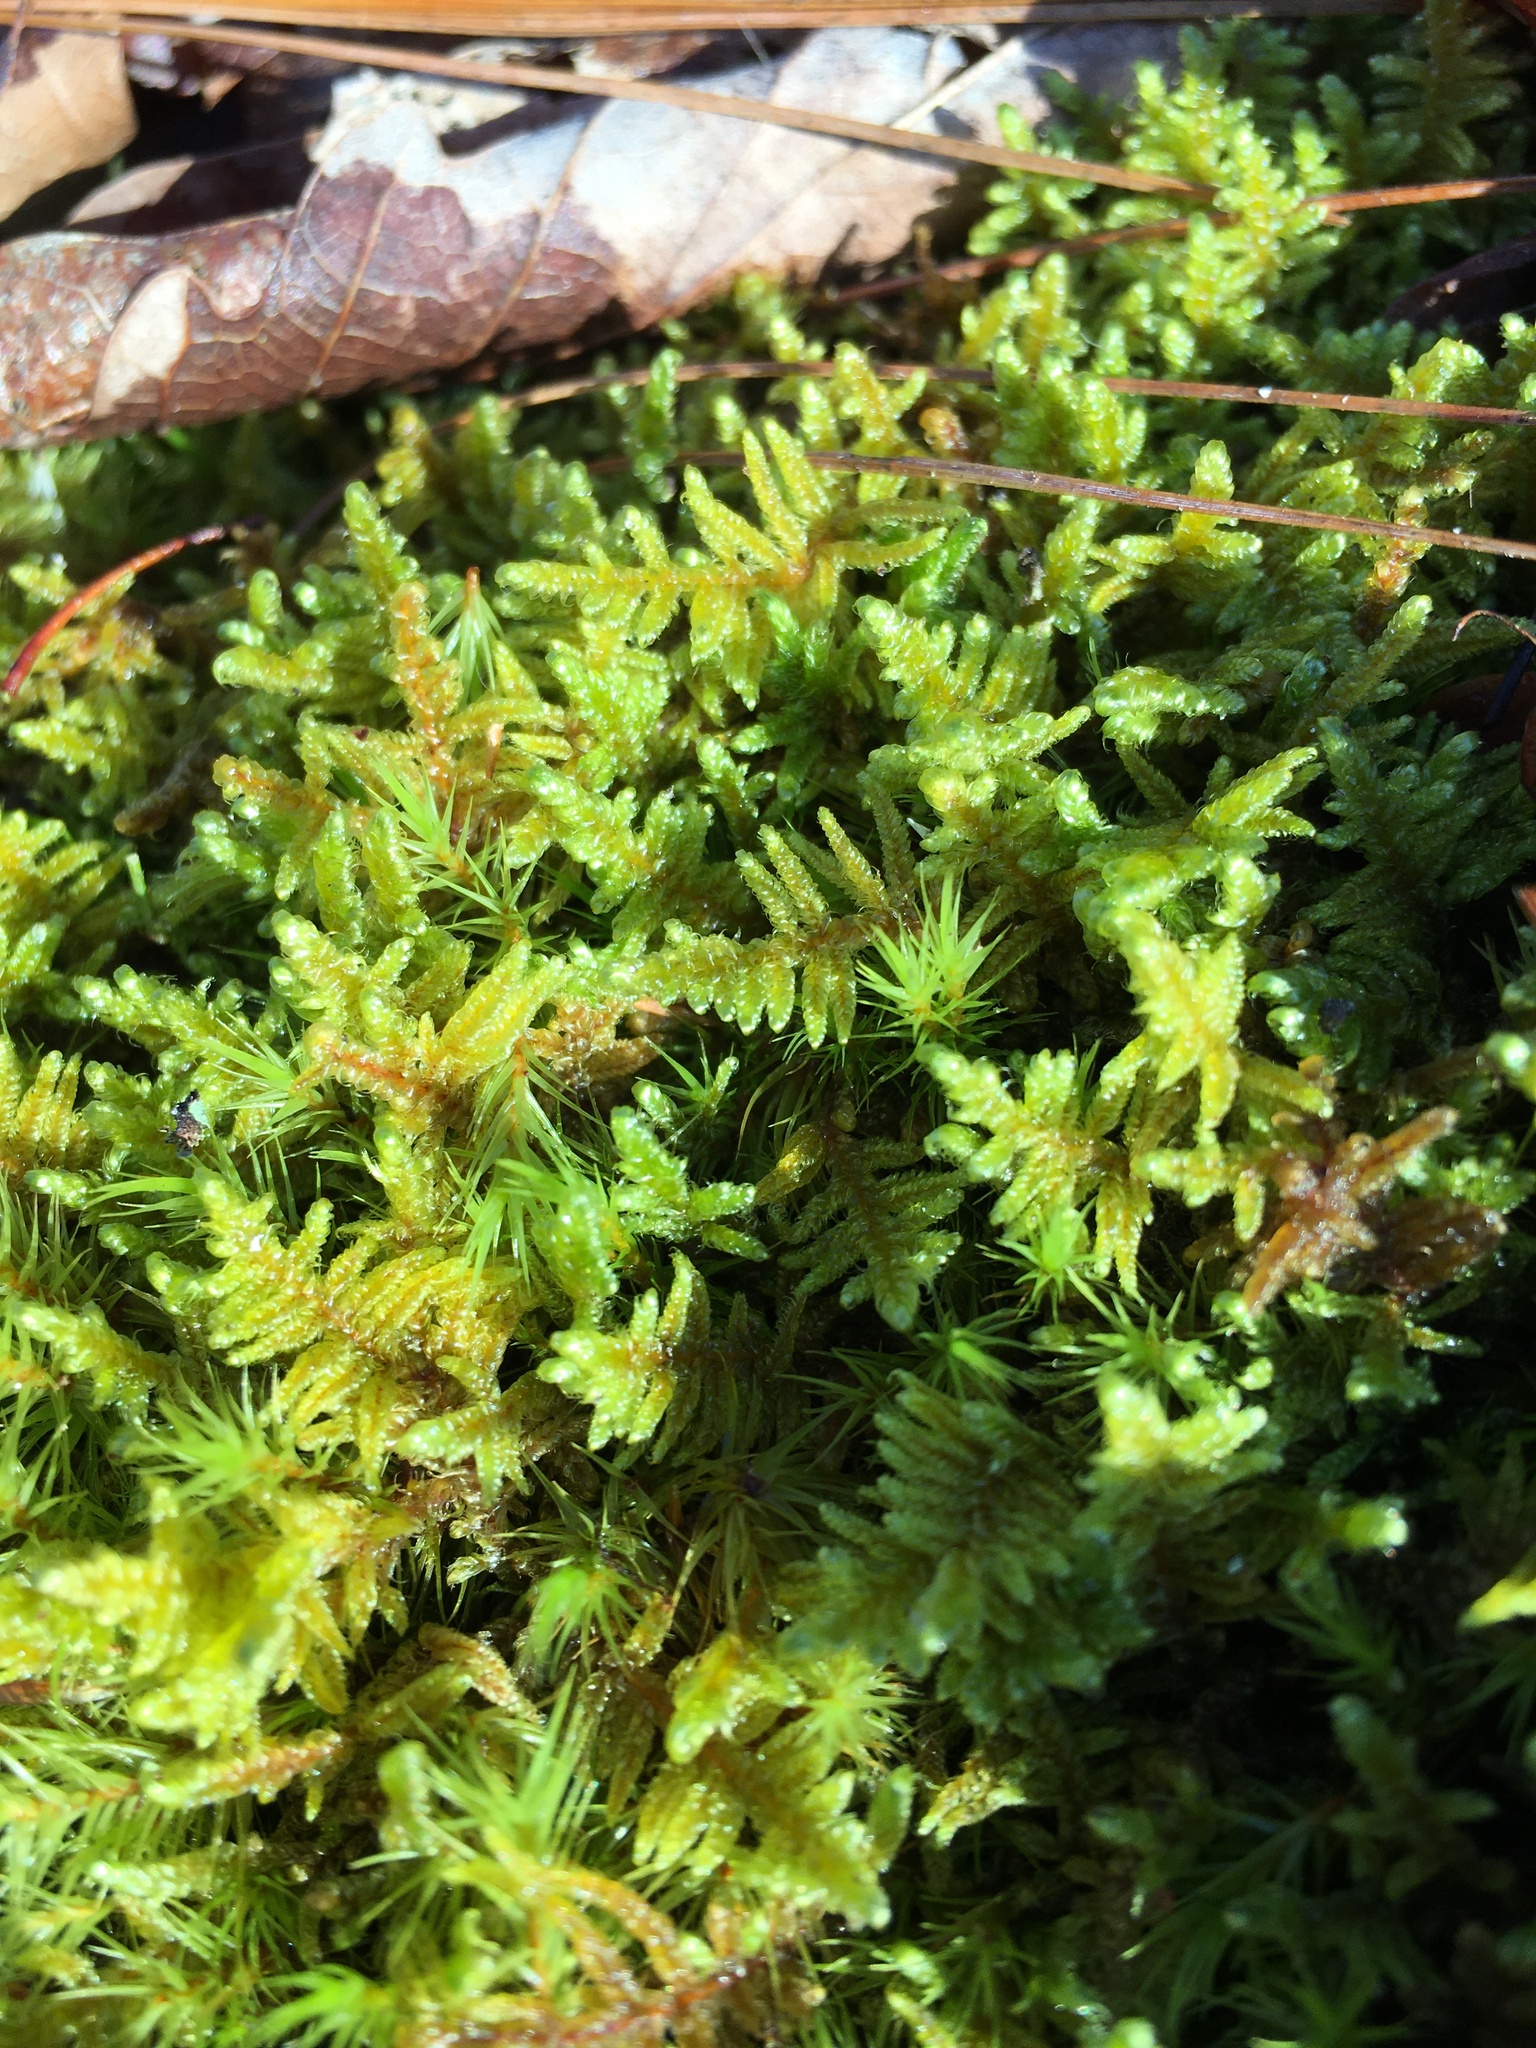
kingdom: Plantae
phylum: Bryophyta
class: Bryopsida
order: Hypnales
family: Callicladiaceae
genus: Callicladium
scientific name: Callicladium imponens
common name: Brocade moss
